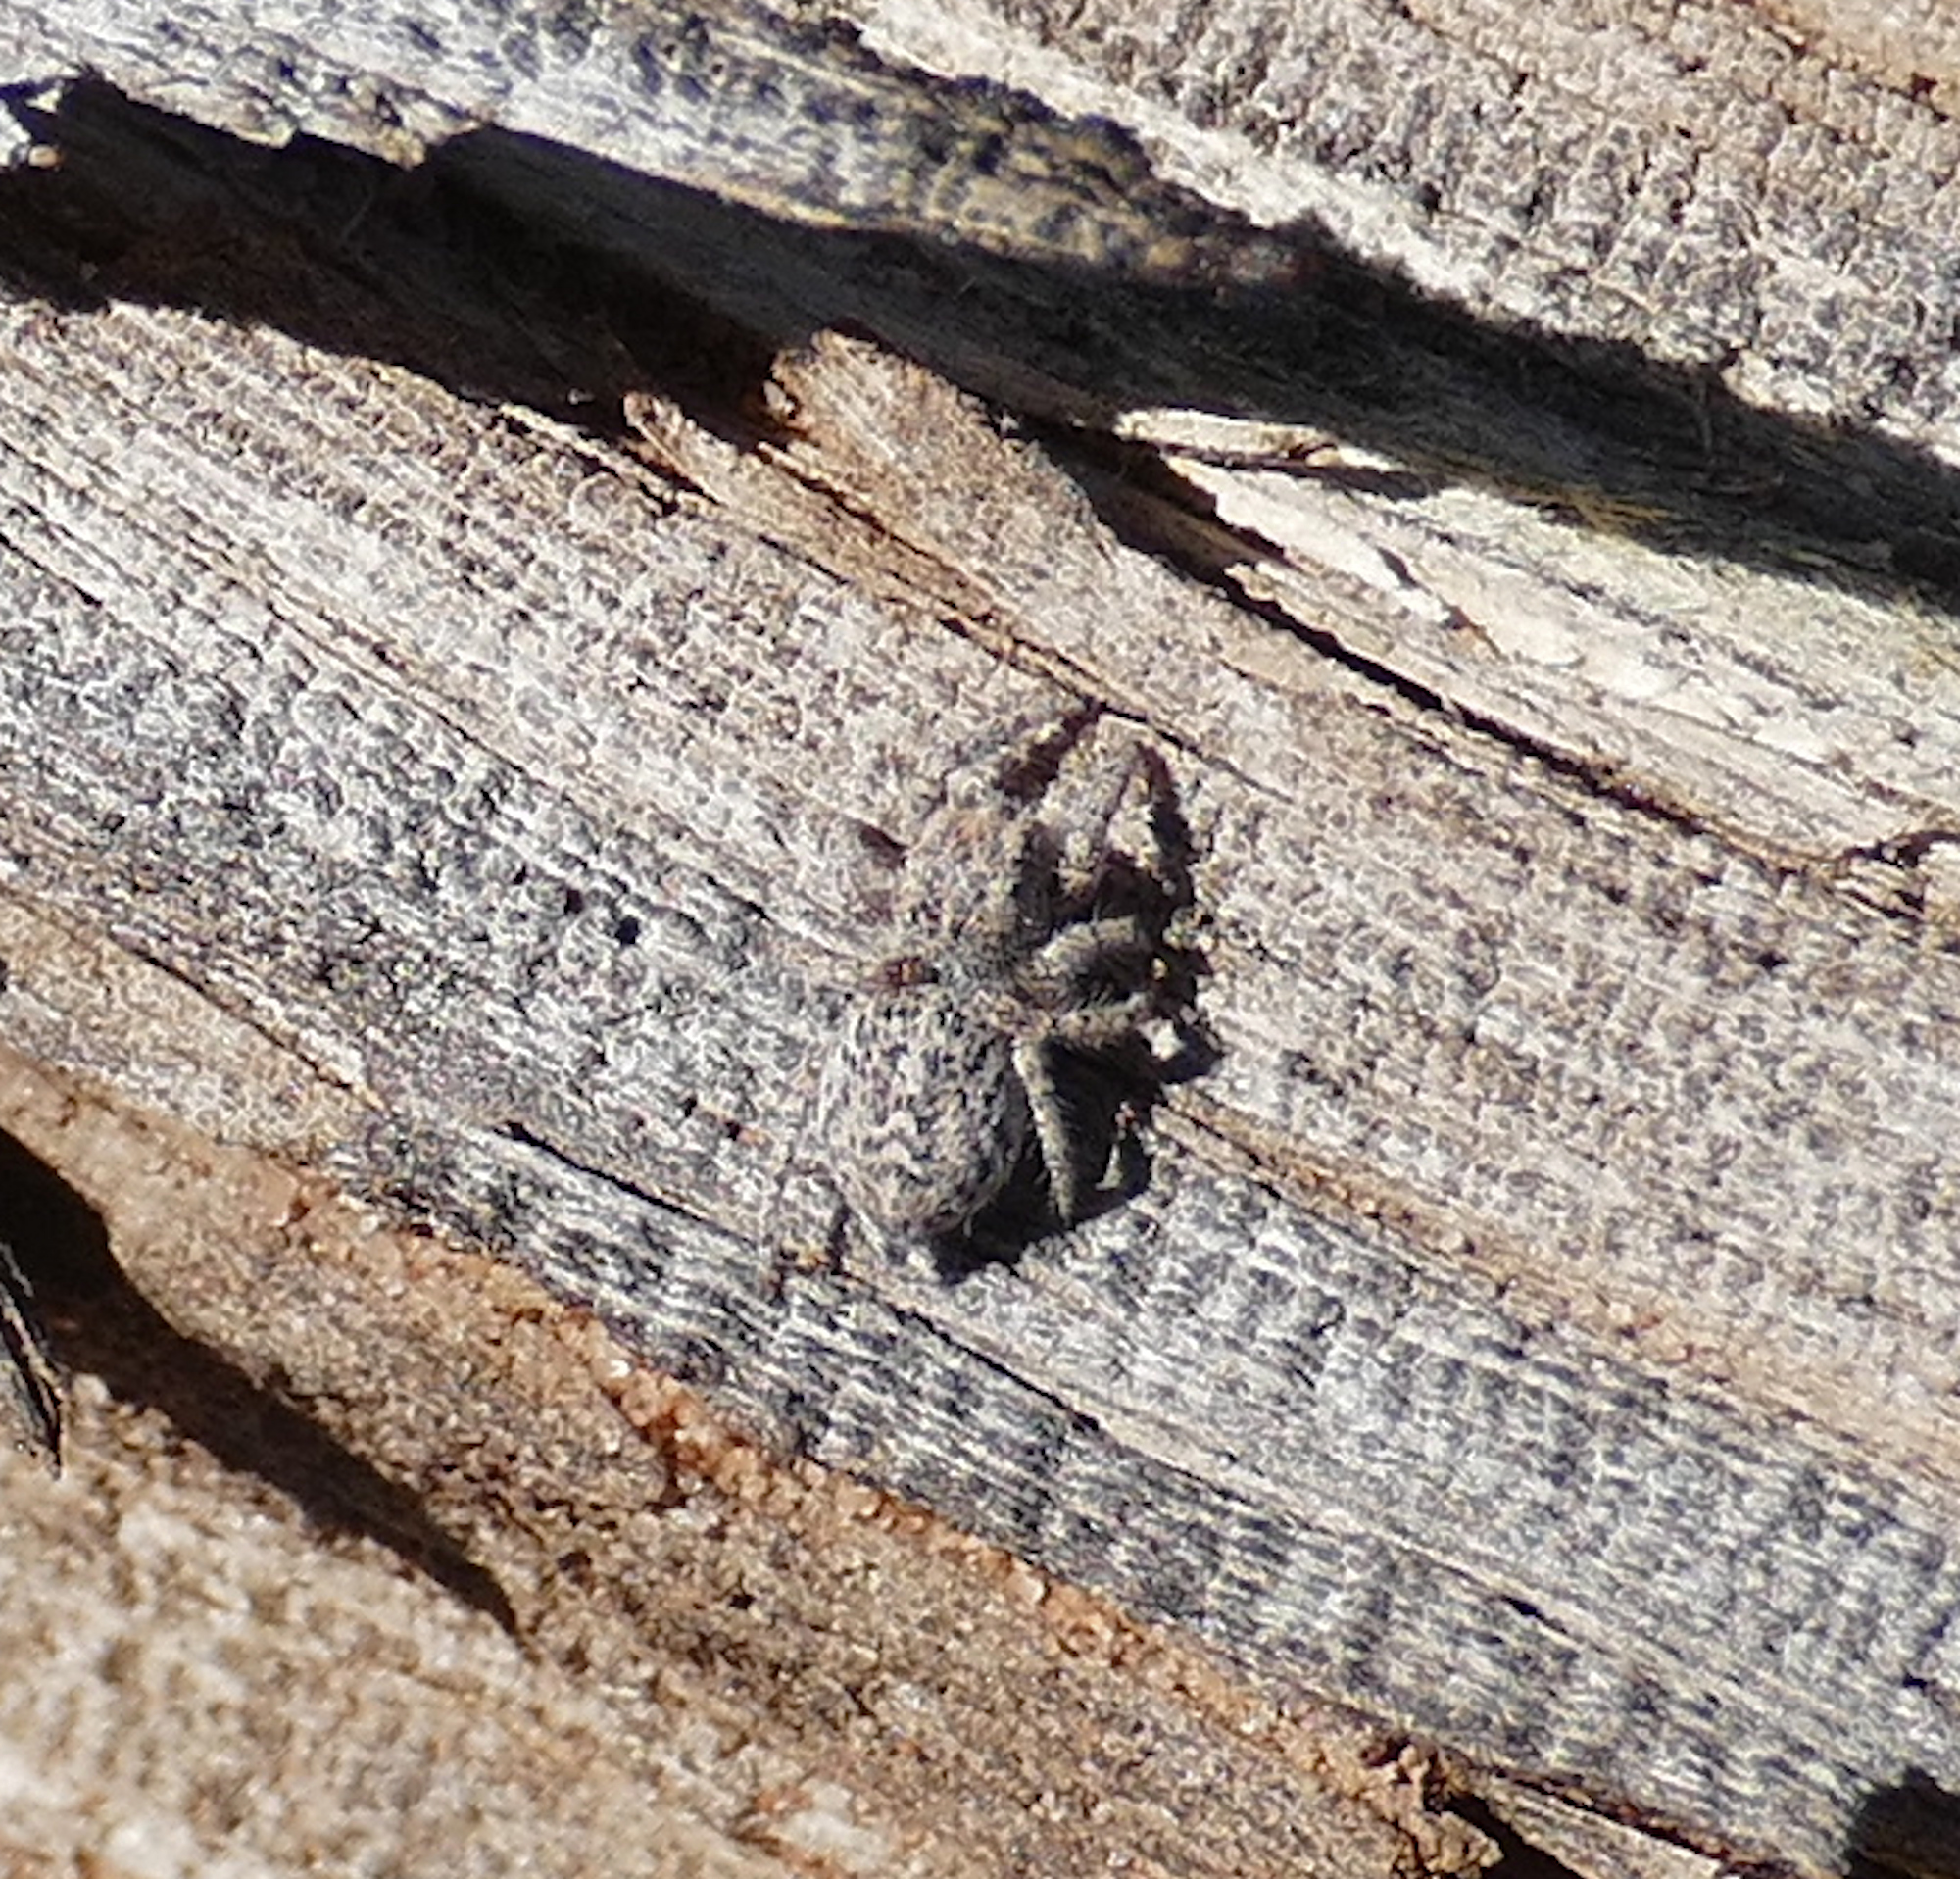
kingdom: Animalia
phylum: Arthropoda
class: Arachnida
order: Araneae
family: Salticidae
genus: Habronattus
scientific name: Habronattus amicus
